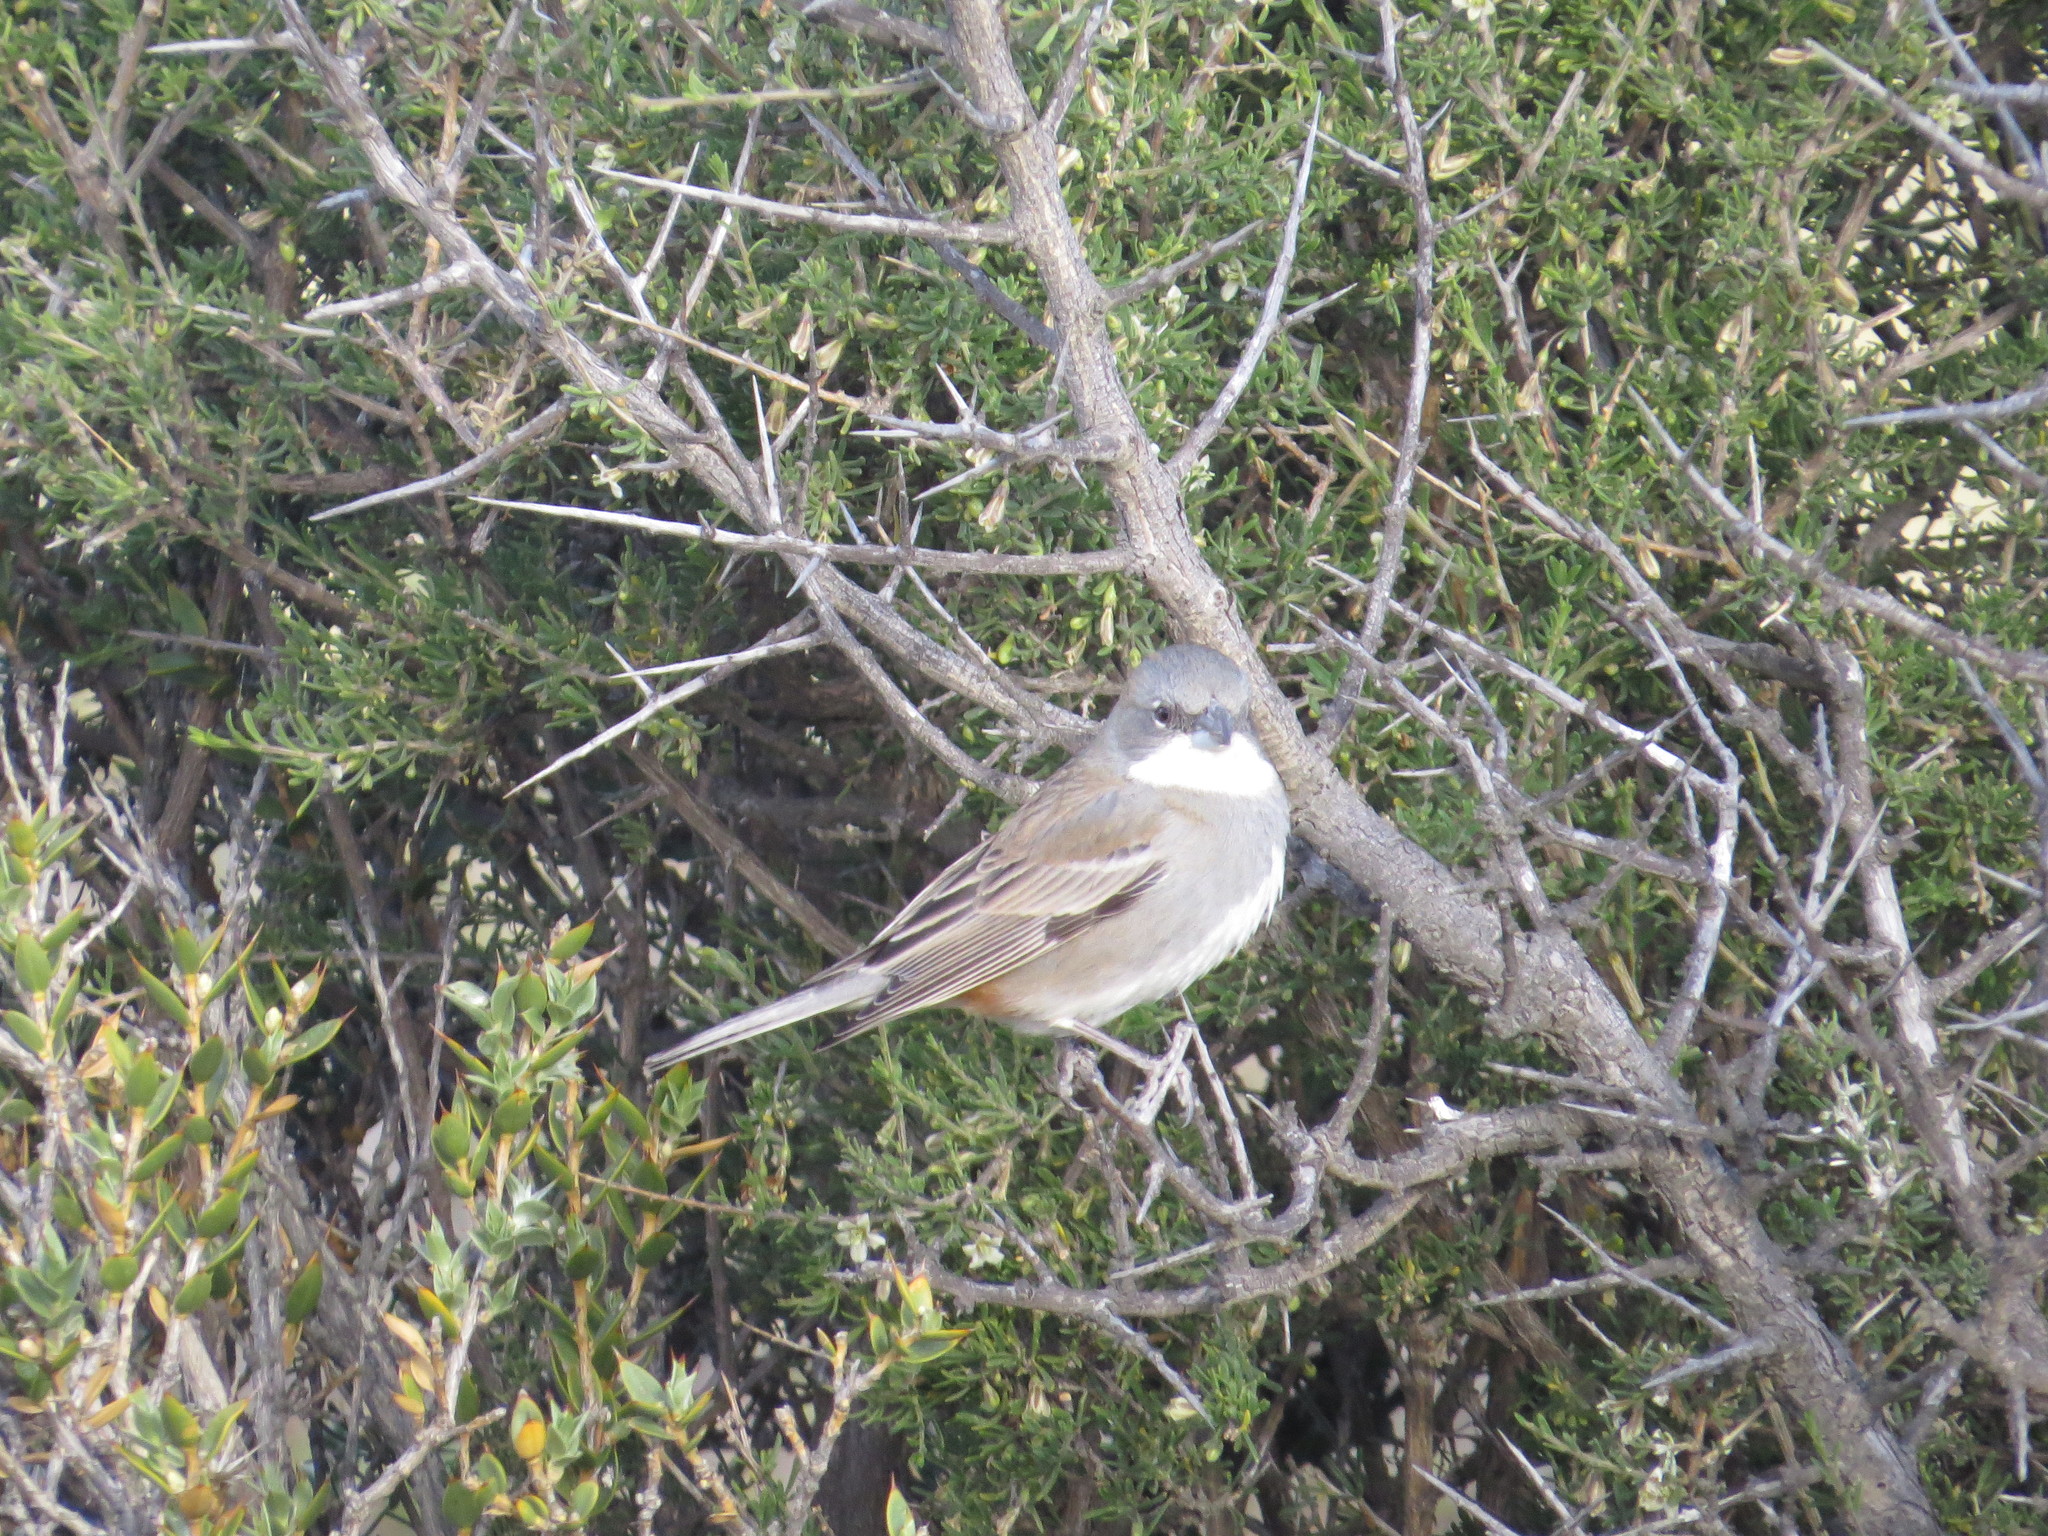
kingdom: Animalia
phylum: Chordata
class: Aves
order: Passeriformes
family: Thraupidae
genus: Diuca
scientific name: Diuca diuca
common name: Common diuca finch
